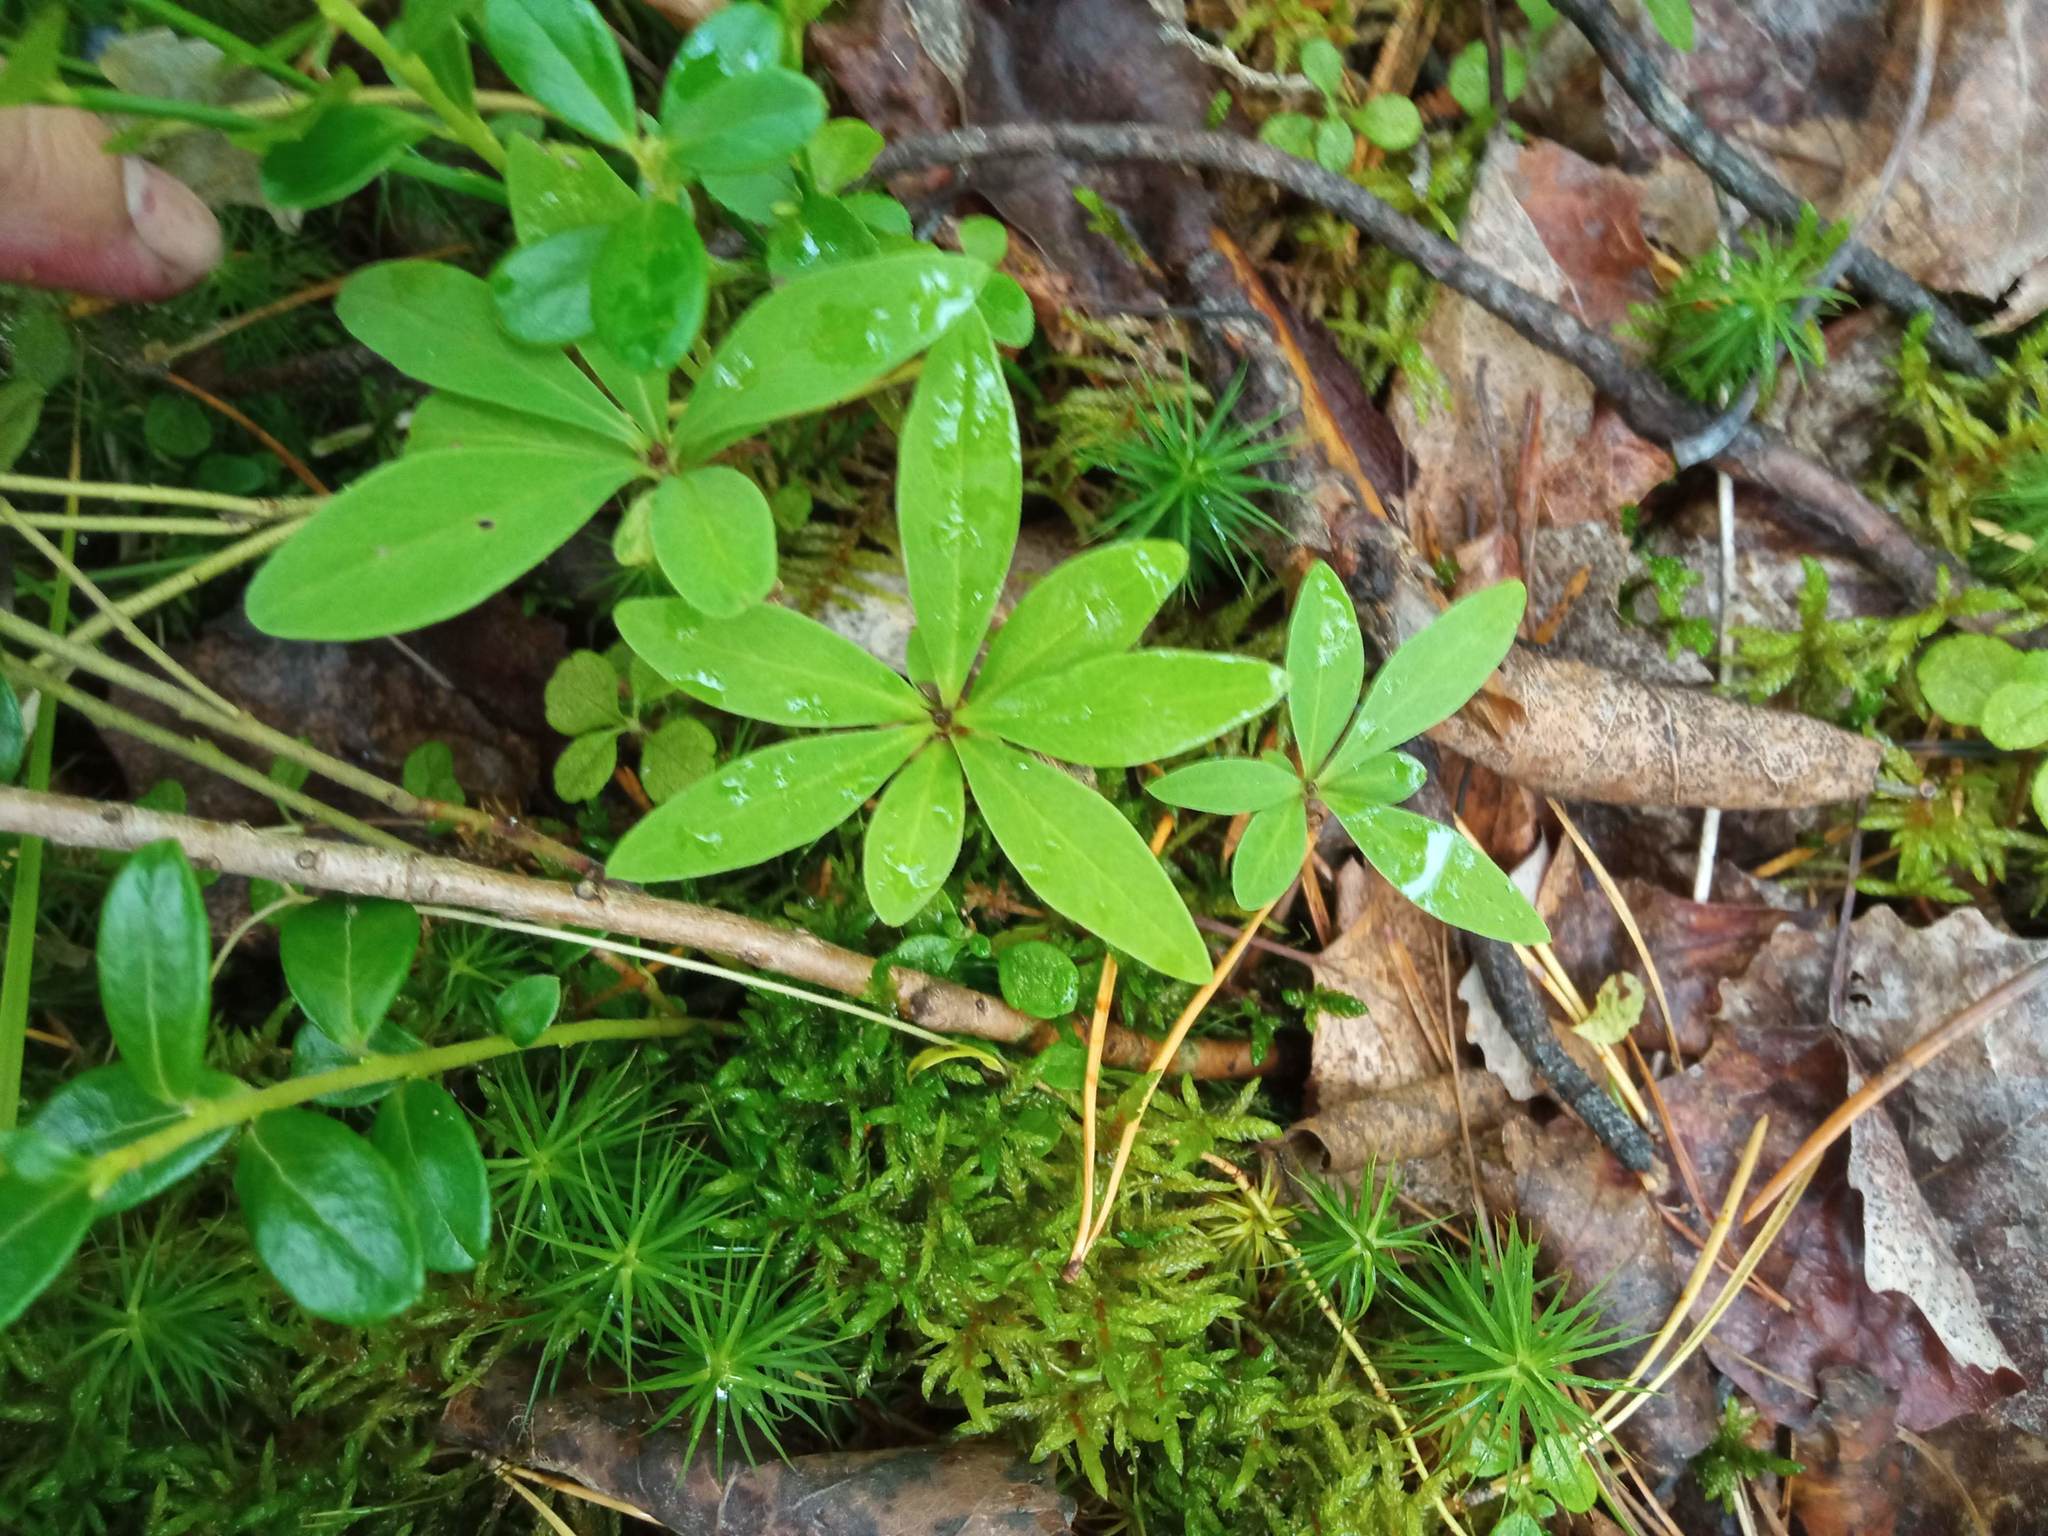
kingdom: Plantae
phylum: Tracheophyta
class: Magnoliopsida
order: Malvales
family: Thymelaeaceae
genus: Daphne
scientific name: Daphne mezereum
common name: Mezereon
